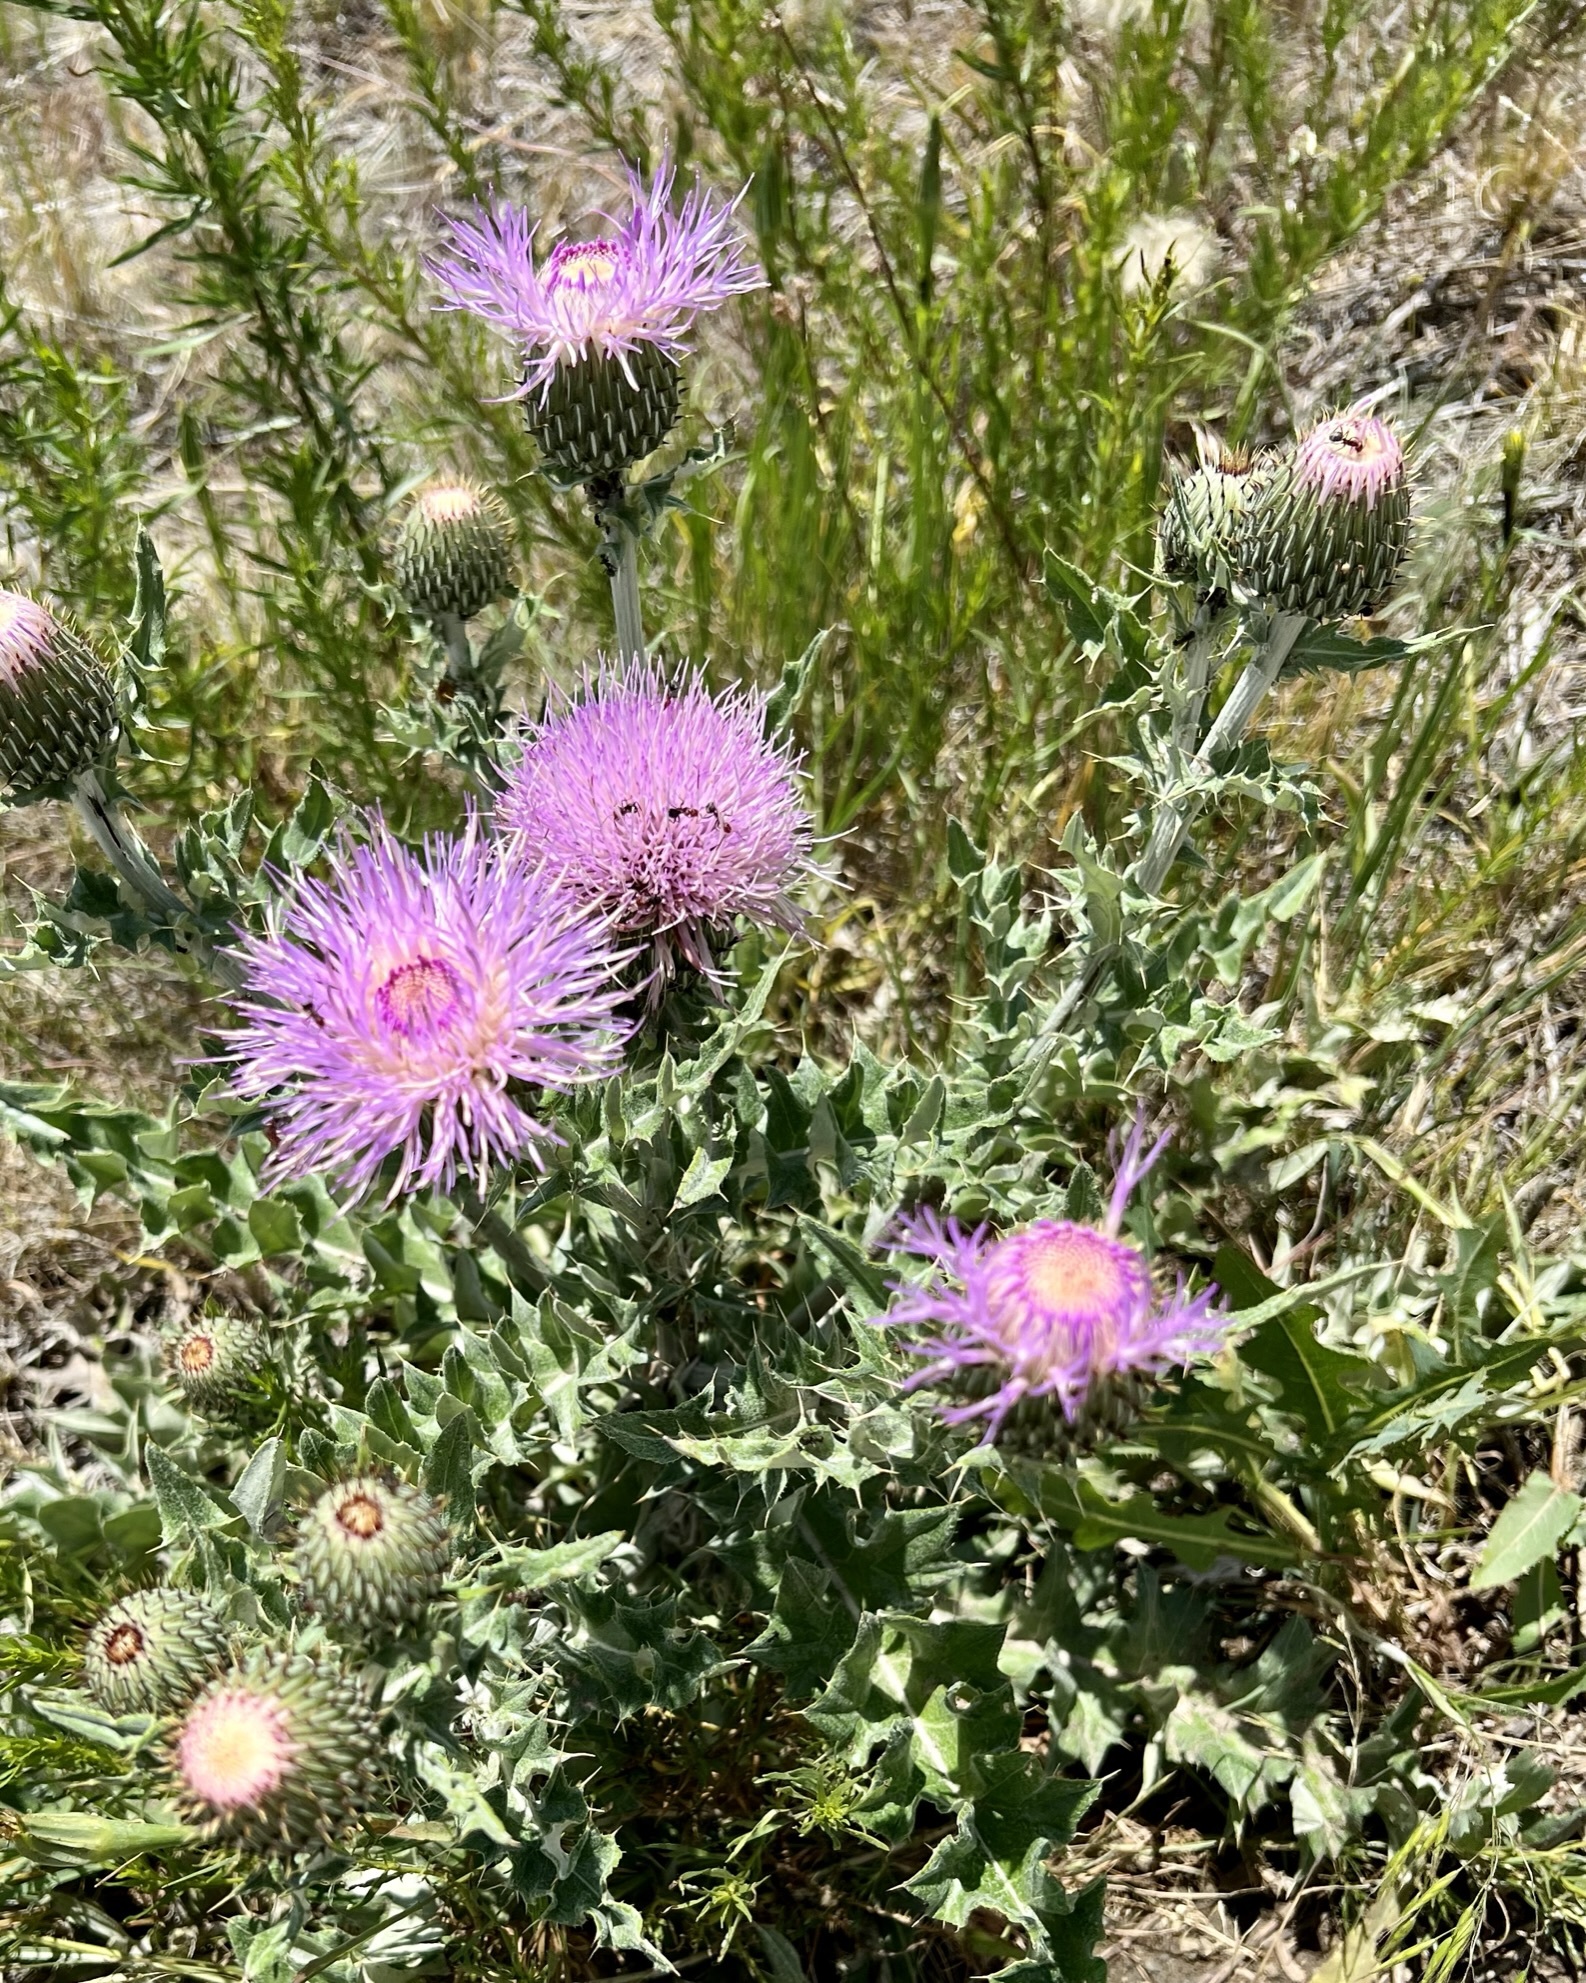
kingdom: Plantae
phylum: Tracheophyta
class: Magnoliopsida
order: Asterales
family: Asteraceae
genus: Cirsium
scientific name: Cirsium undulatum
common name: Pasture thistle
